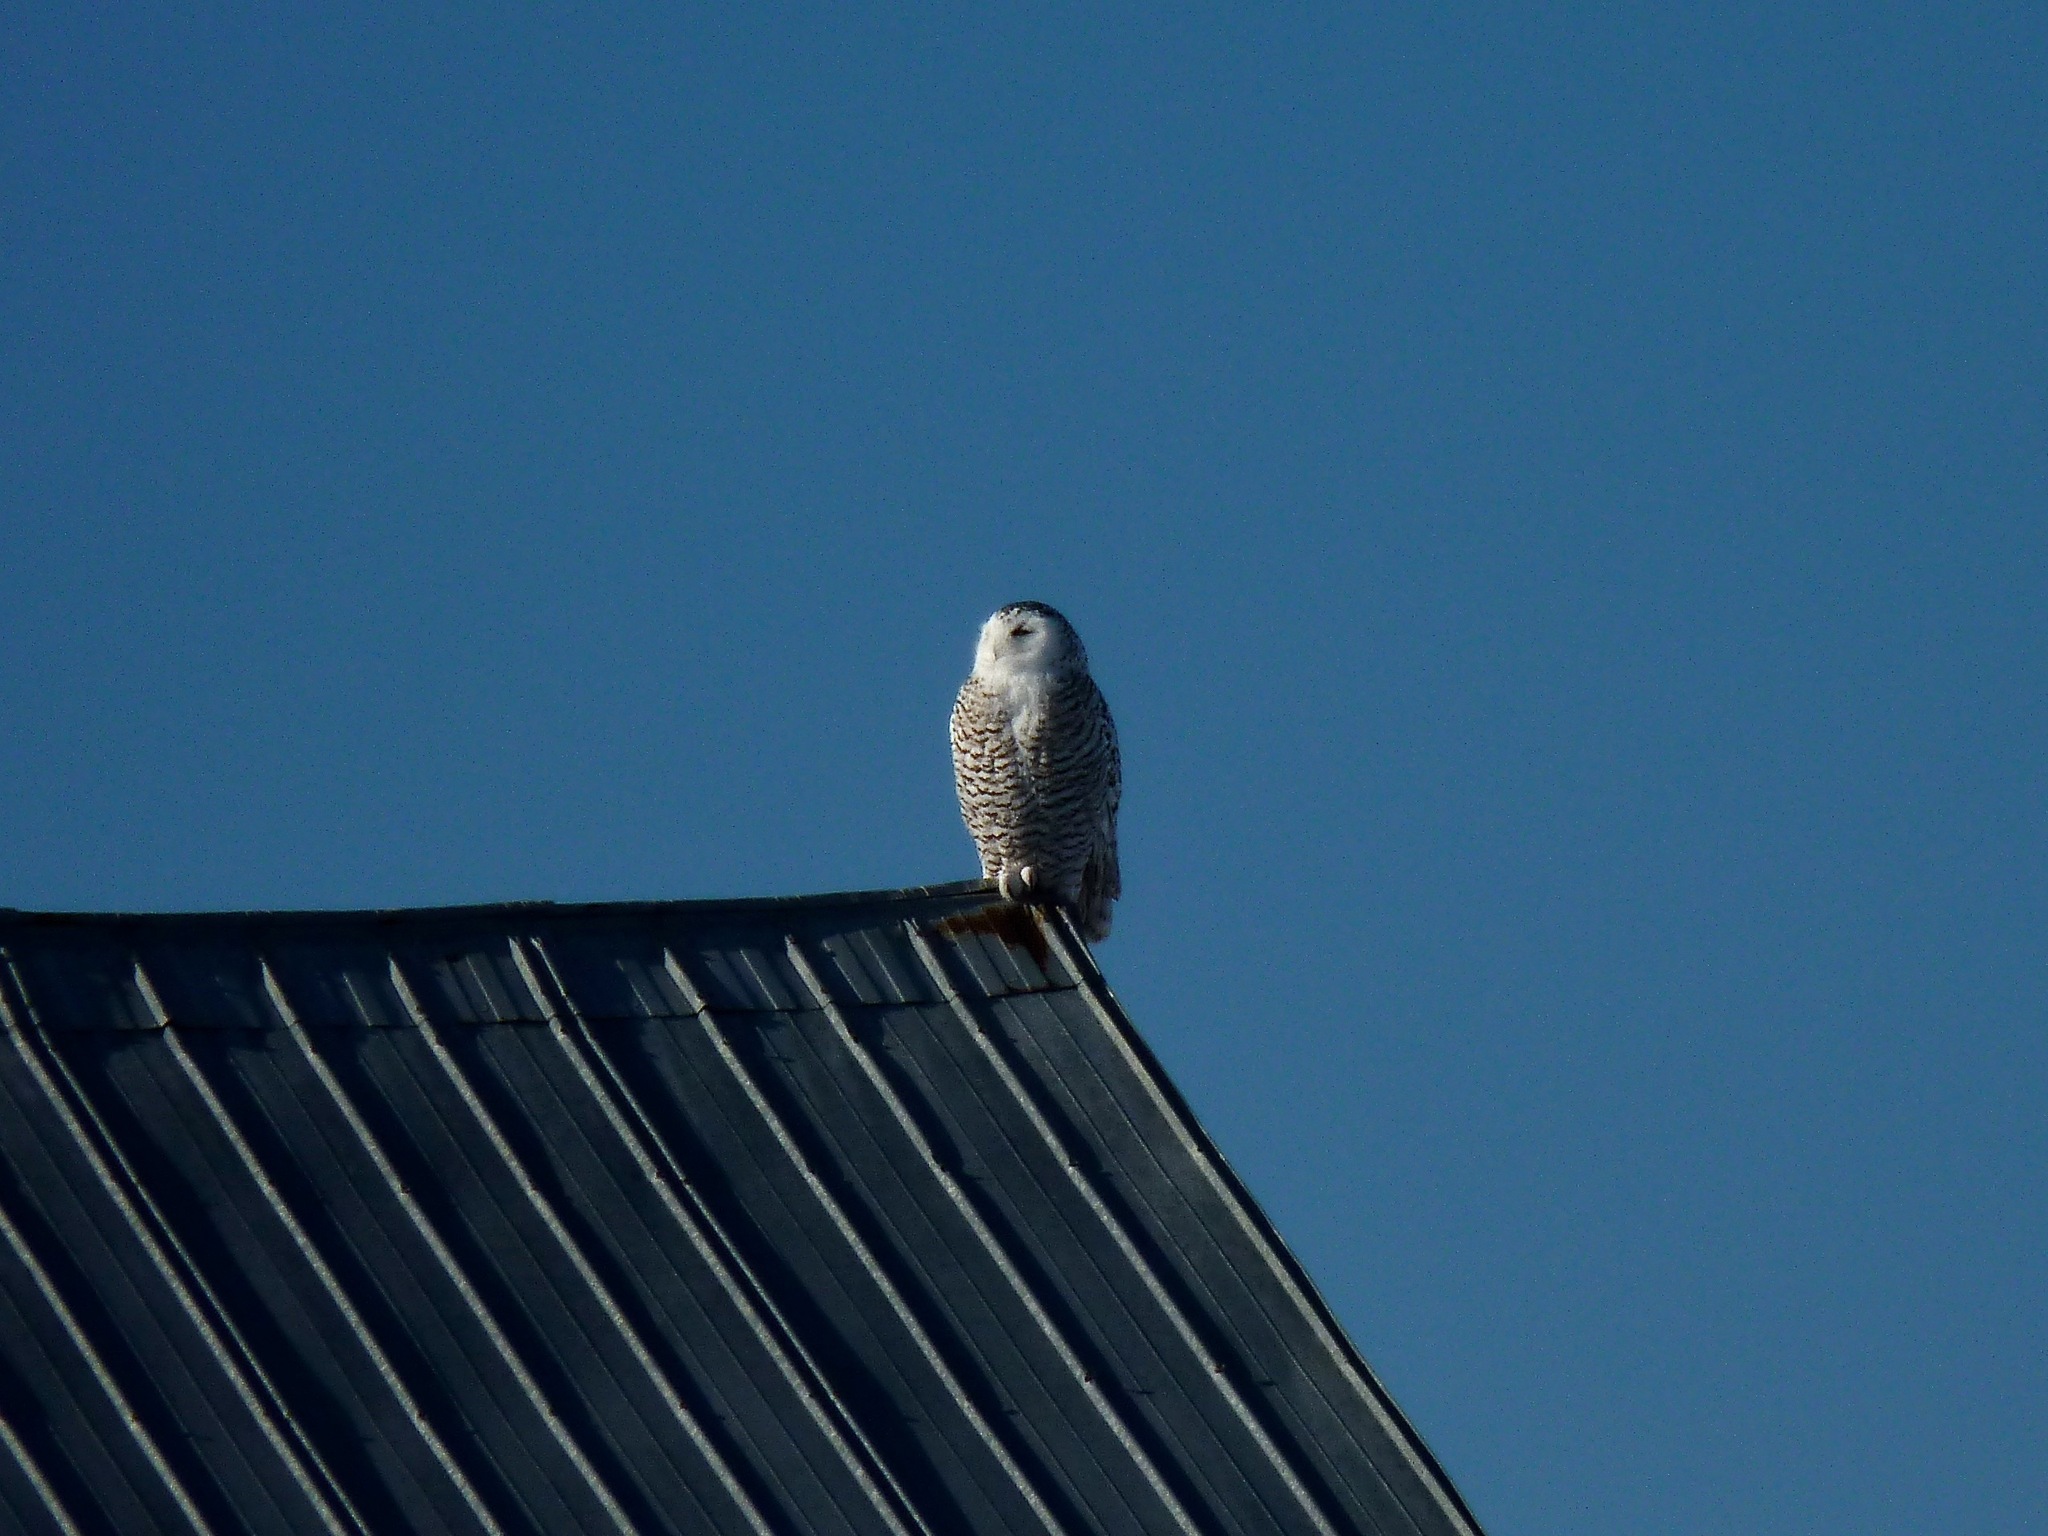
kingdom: Animalia
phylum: Chordata
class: Aves
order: Strigiformes
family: Strigidae
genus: Bubo
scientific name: Bubo scandiacus
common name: Snowy owl
